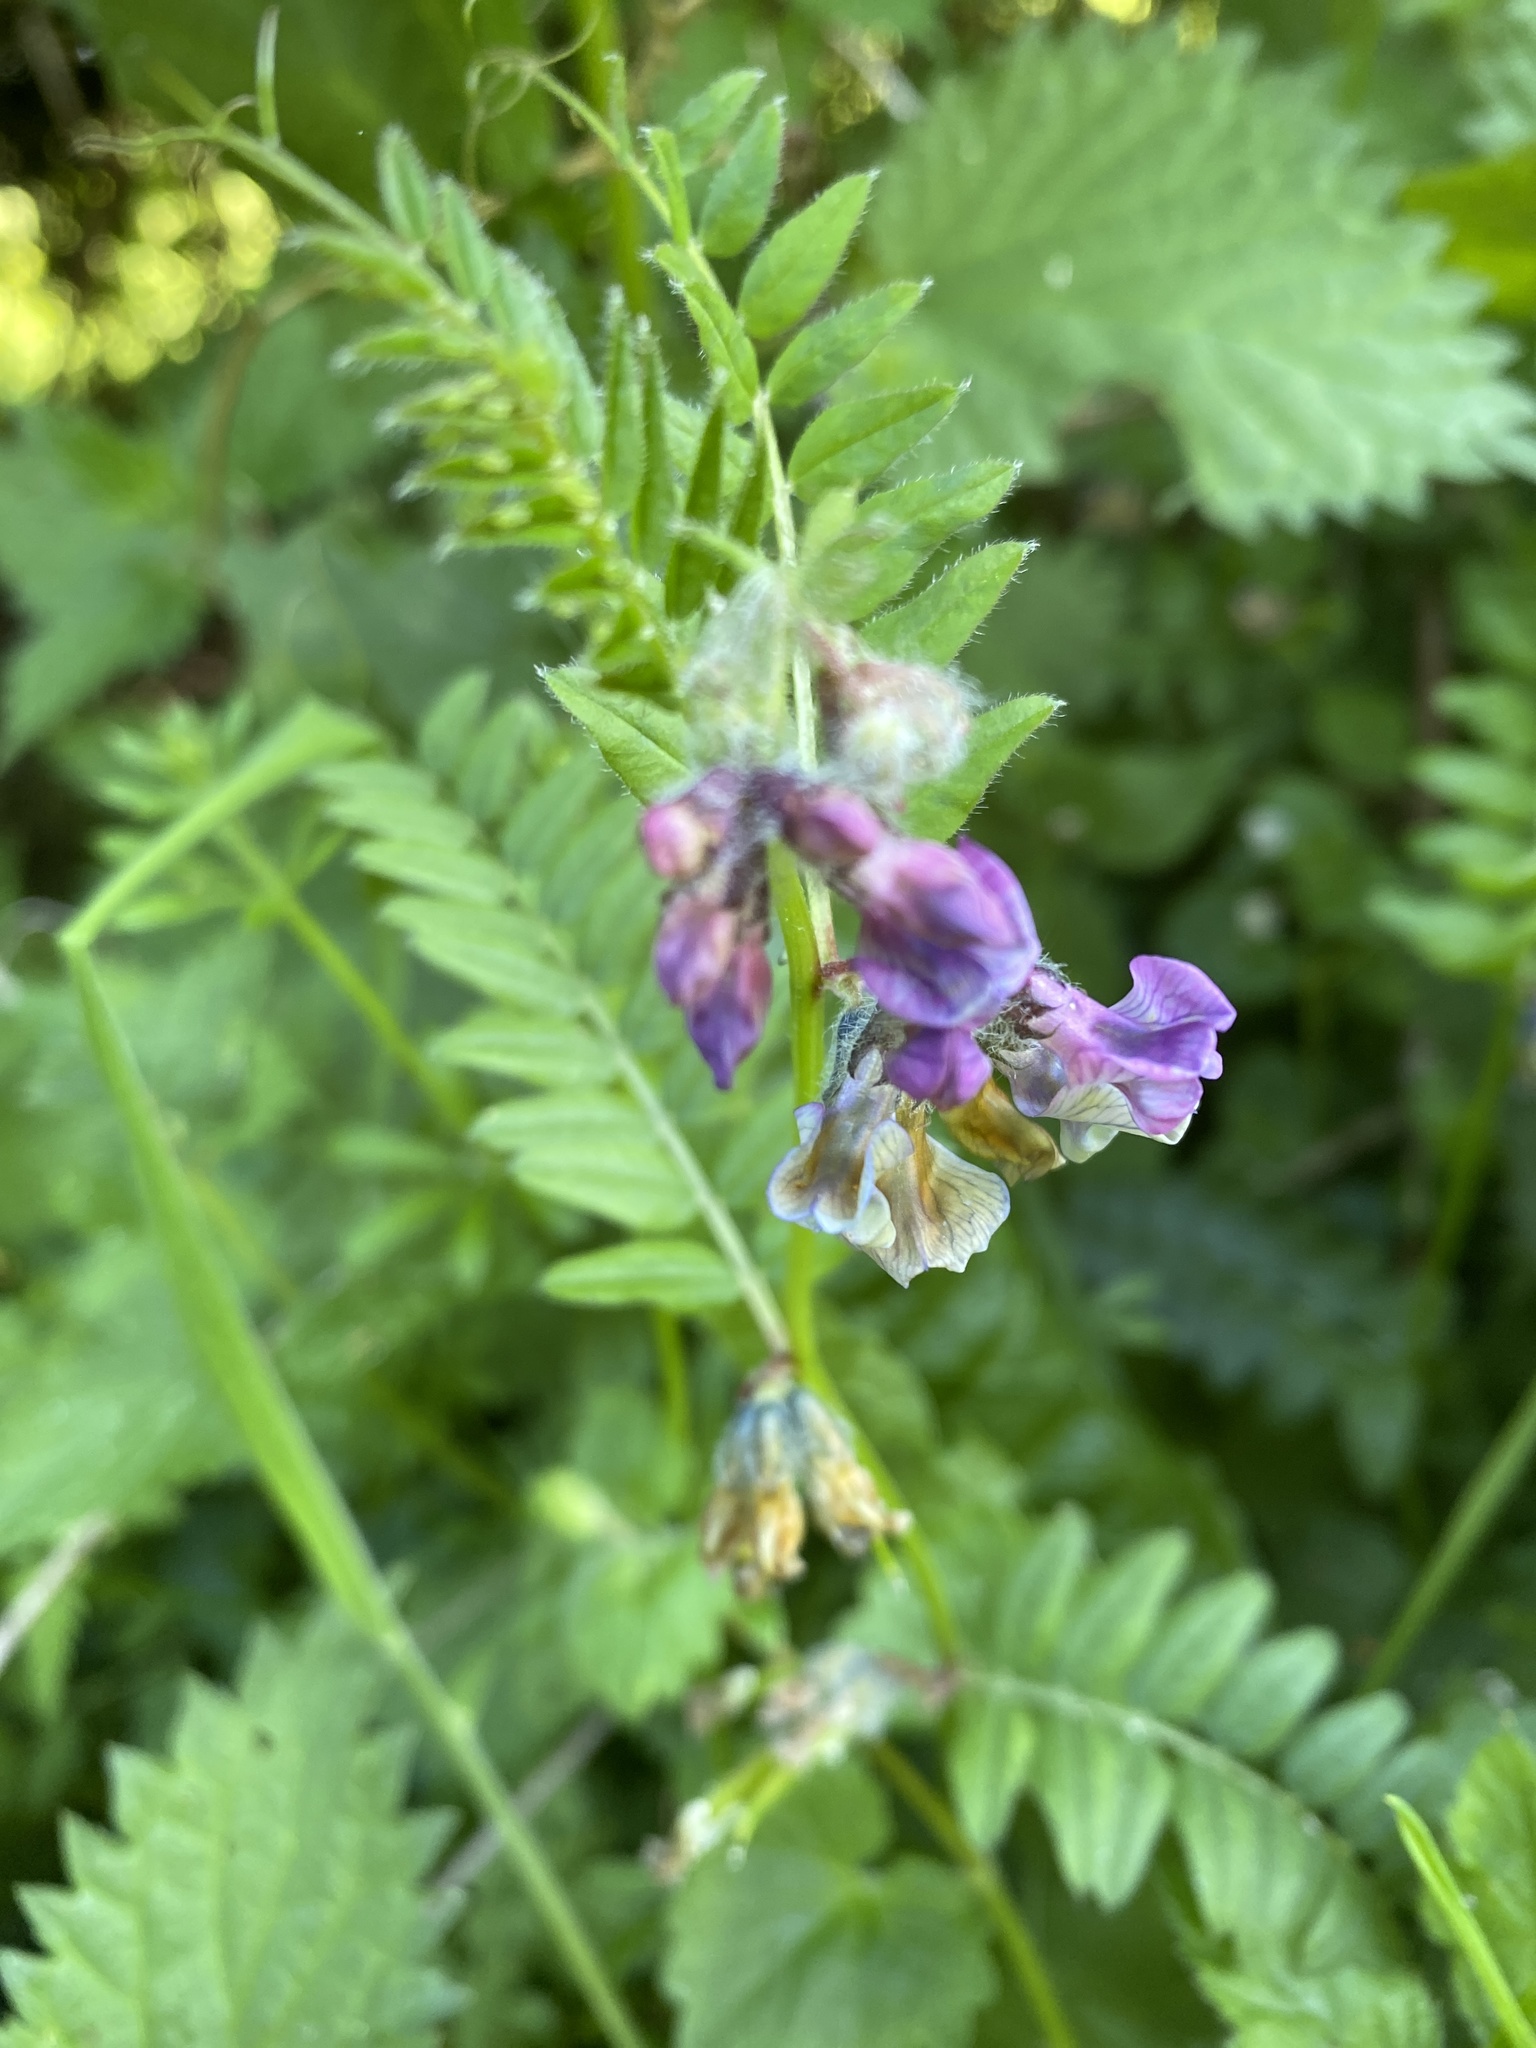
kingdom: Plantae
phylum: Tracheophyta
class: Magnoliopsida
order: Fabales
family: Fabaceae
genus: Vicia
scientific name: Vicia sepium
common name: Bush vetch
